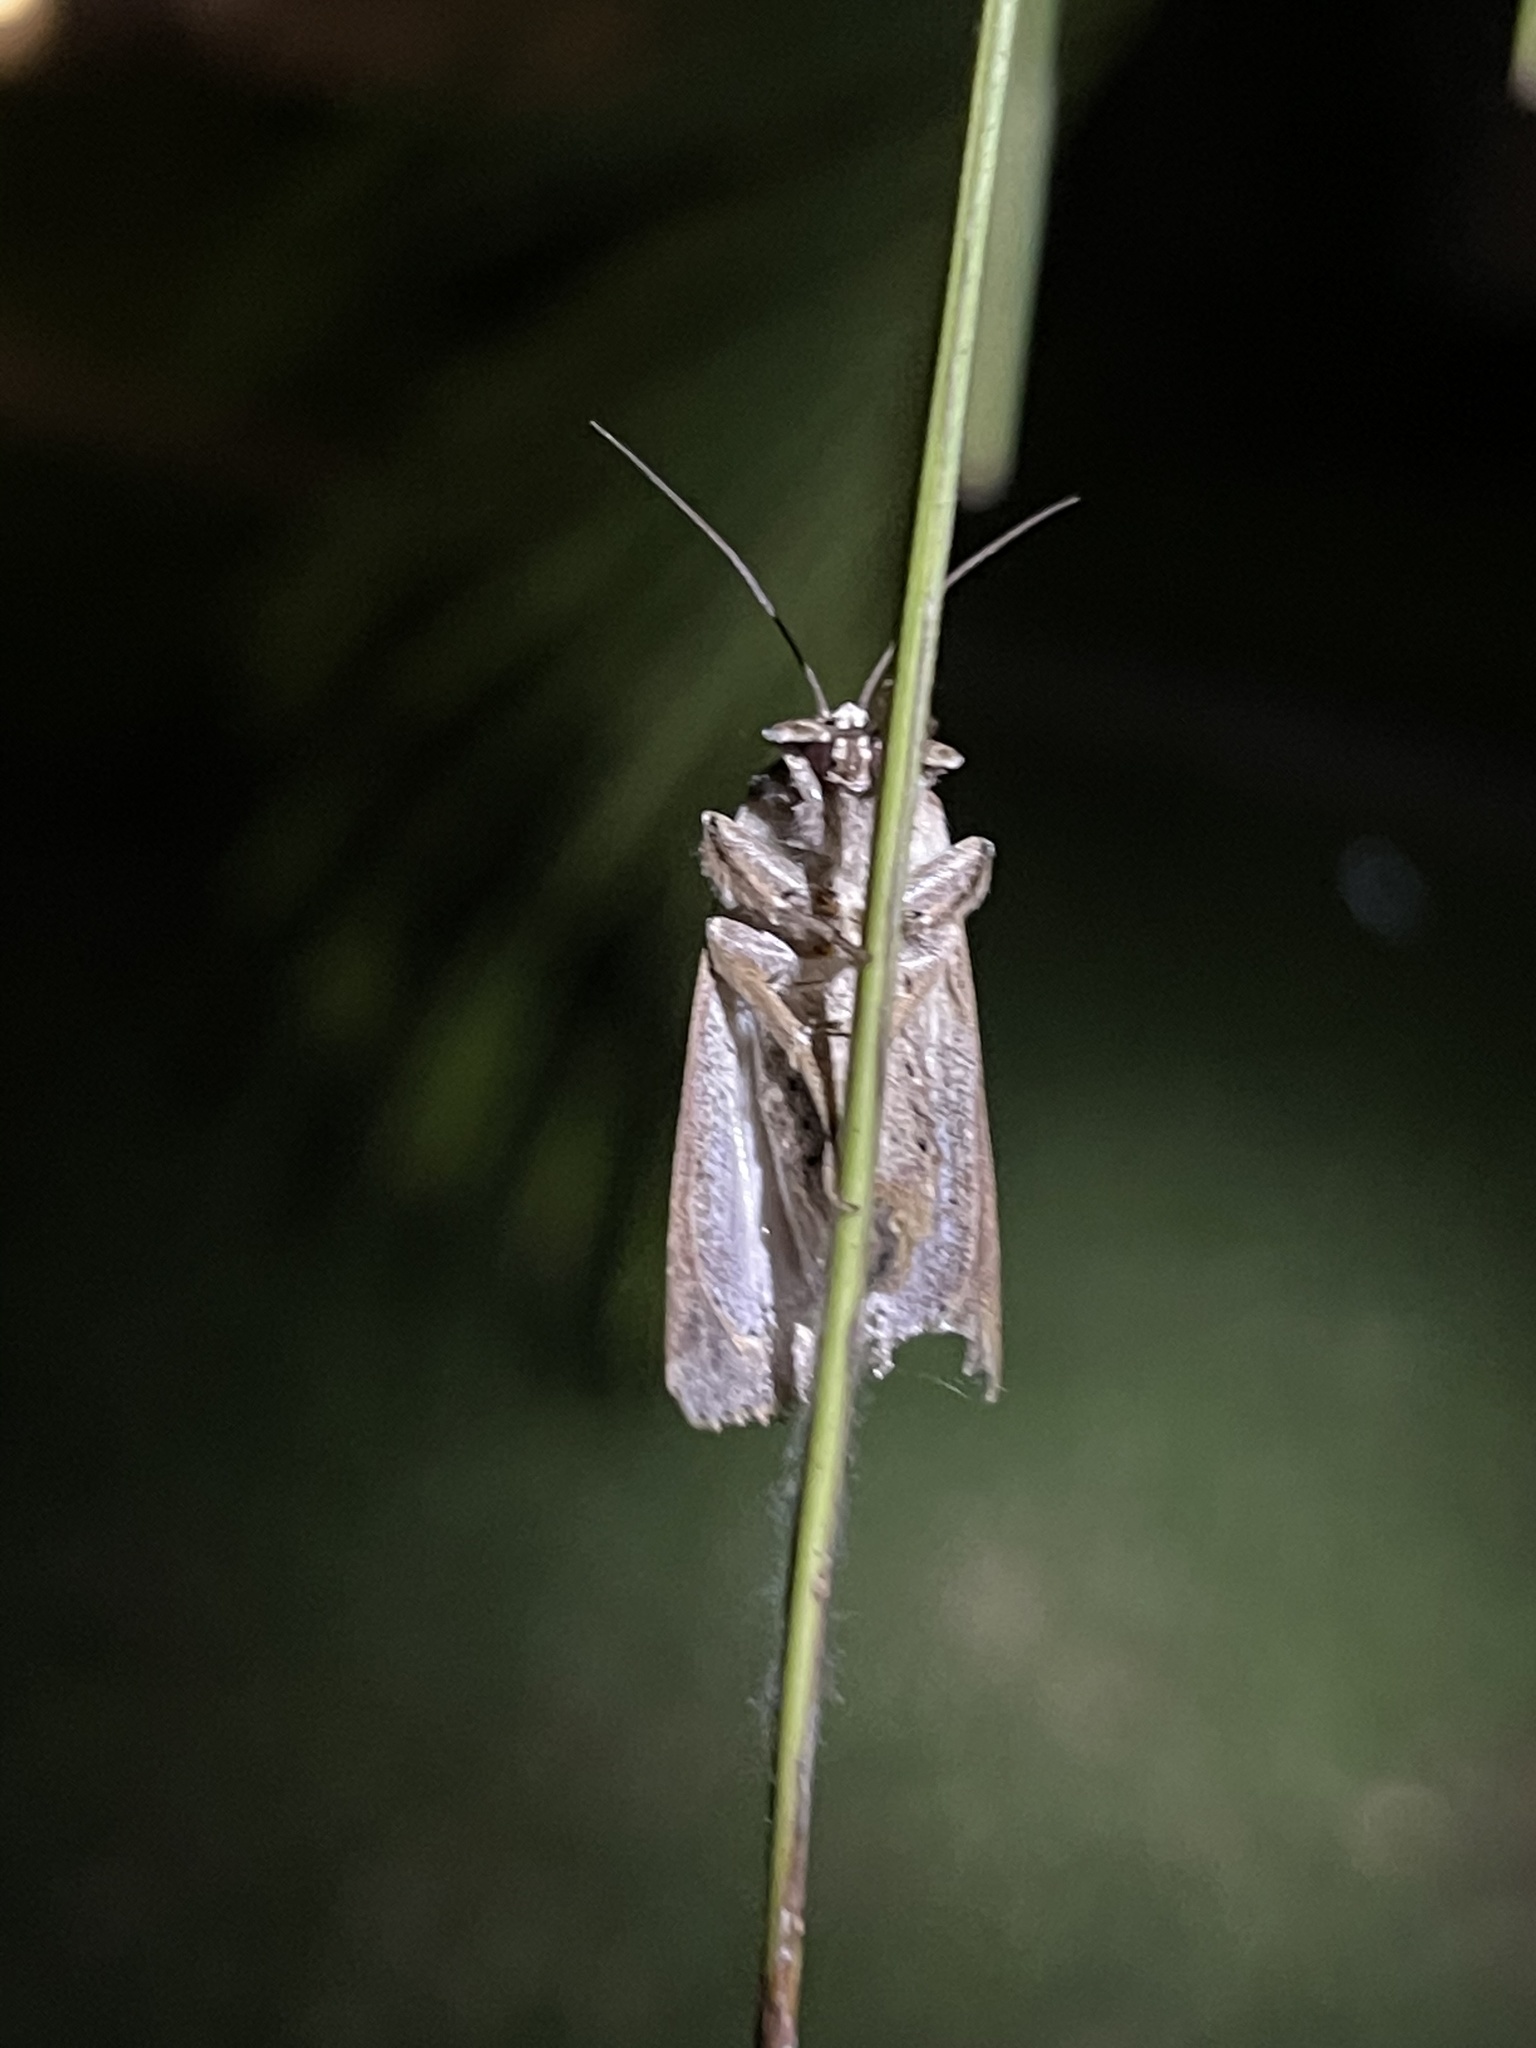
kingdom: Animalia
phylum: Arthropoda
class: Insecta
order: Lepidoptera
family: Noctuidae
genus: Spodoptera
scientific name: Spodoptera pulchella
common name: Caribbean armyworm moth
